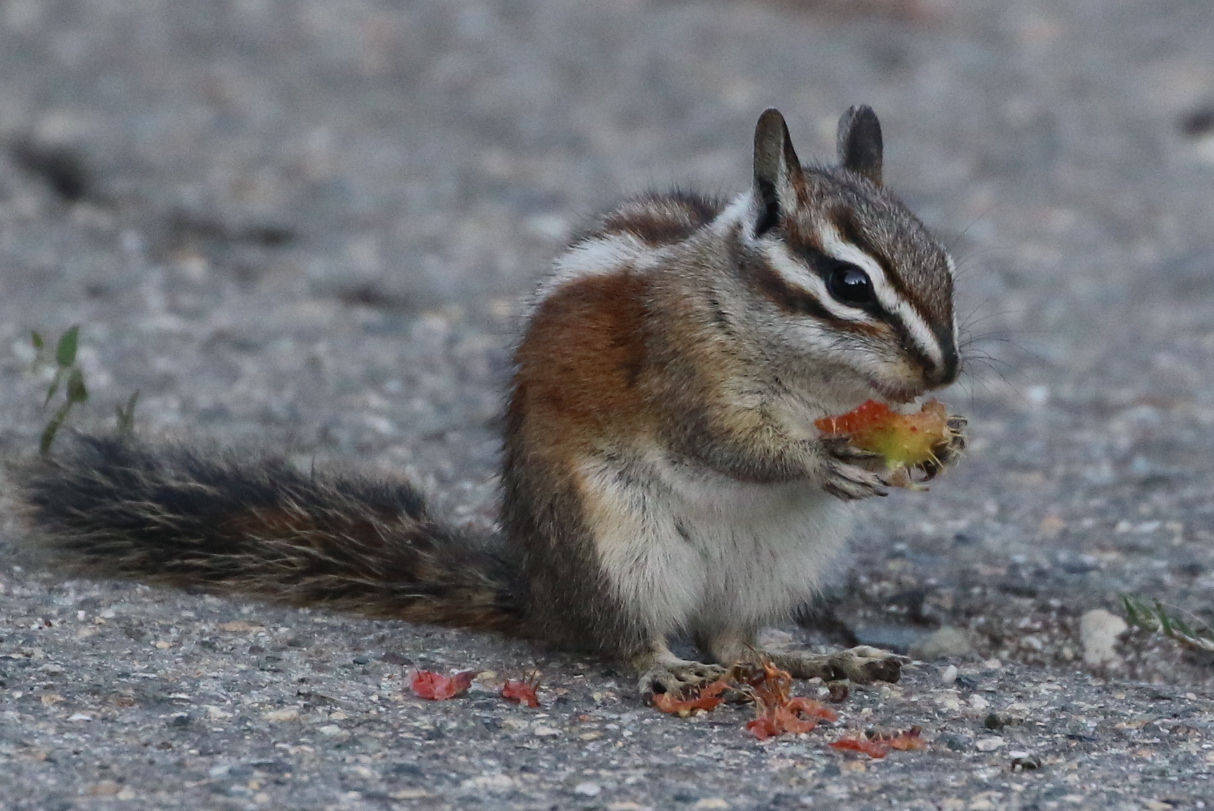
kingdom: Animalia
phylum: Chordata
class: Mammalia
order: Rodentia
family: Sciuridae
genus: Tamias
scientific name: Tamias speciosus
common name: Lodgepole chipmunk
